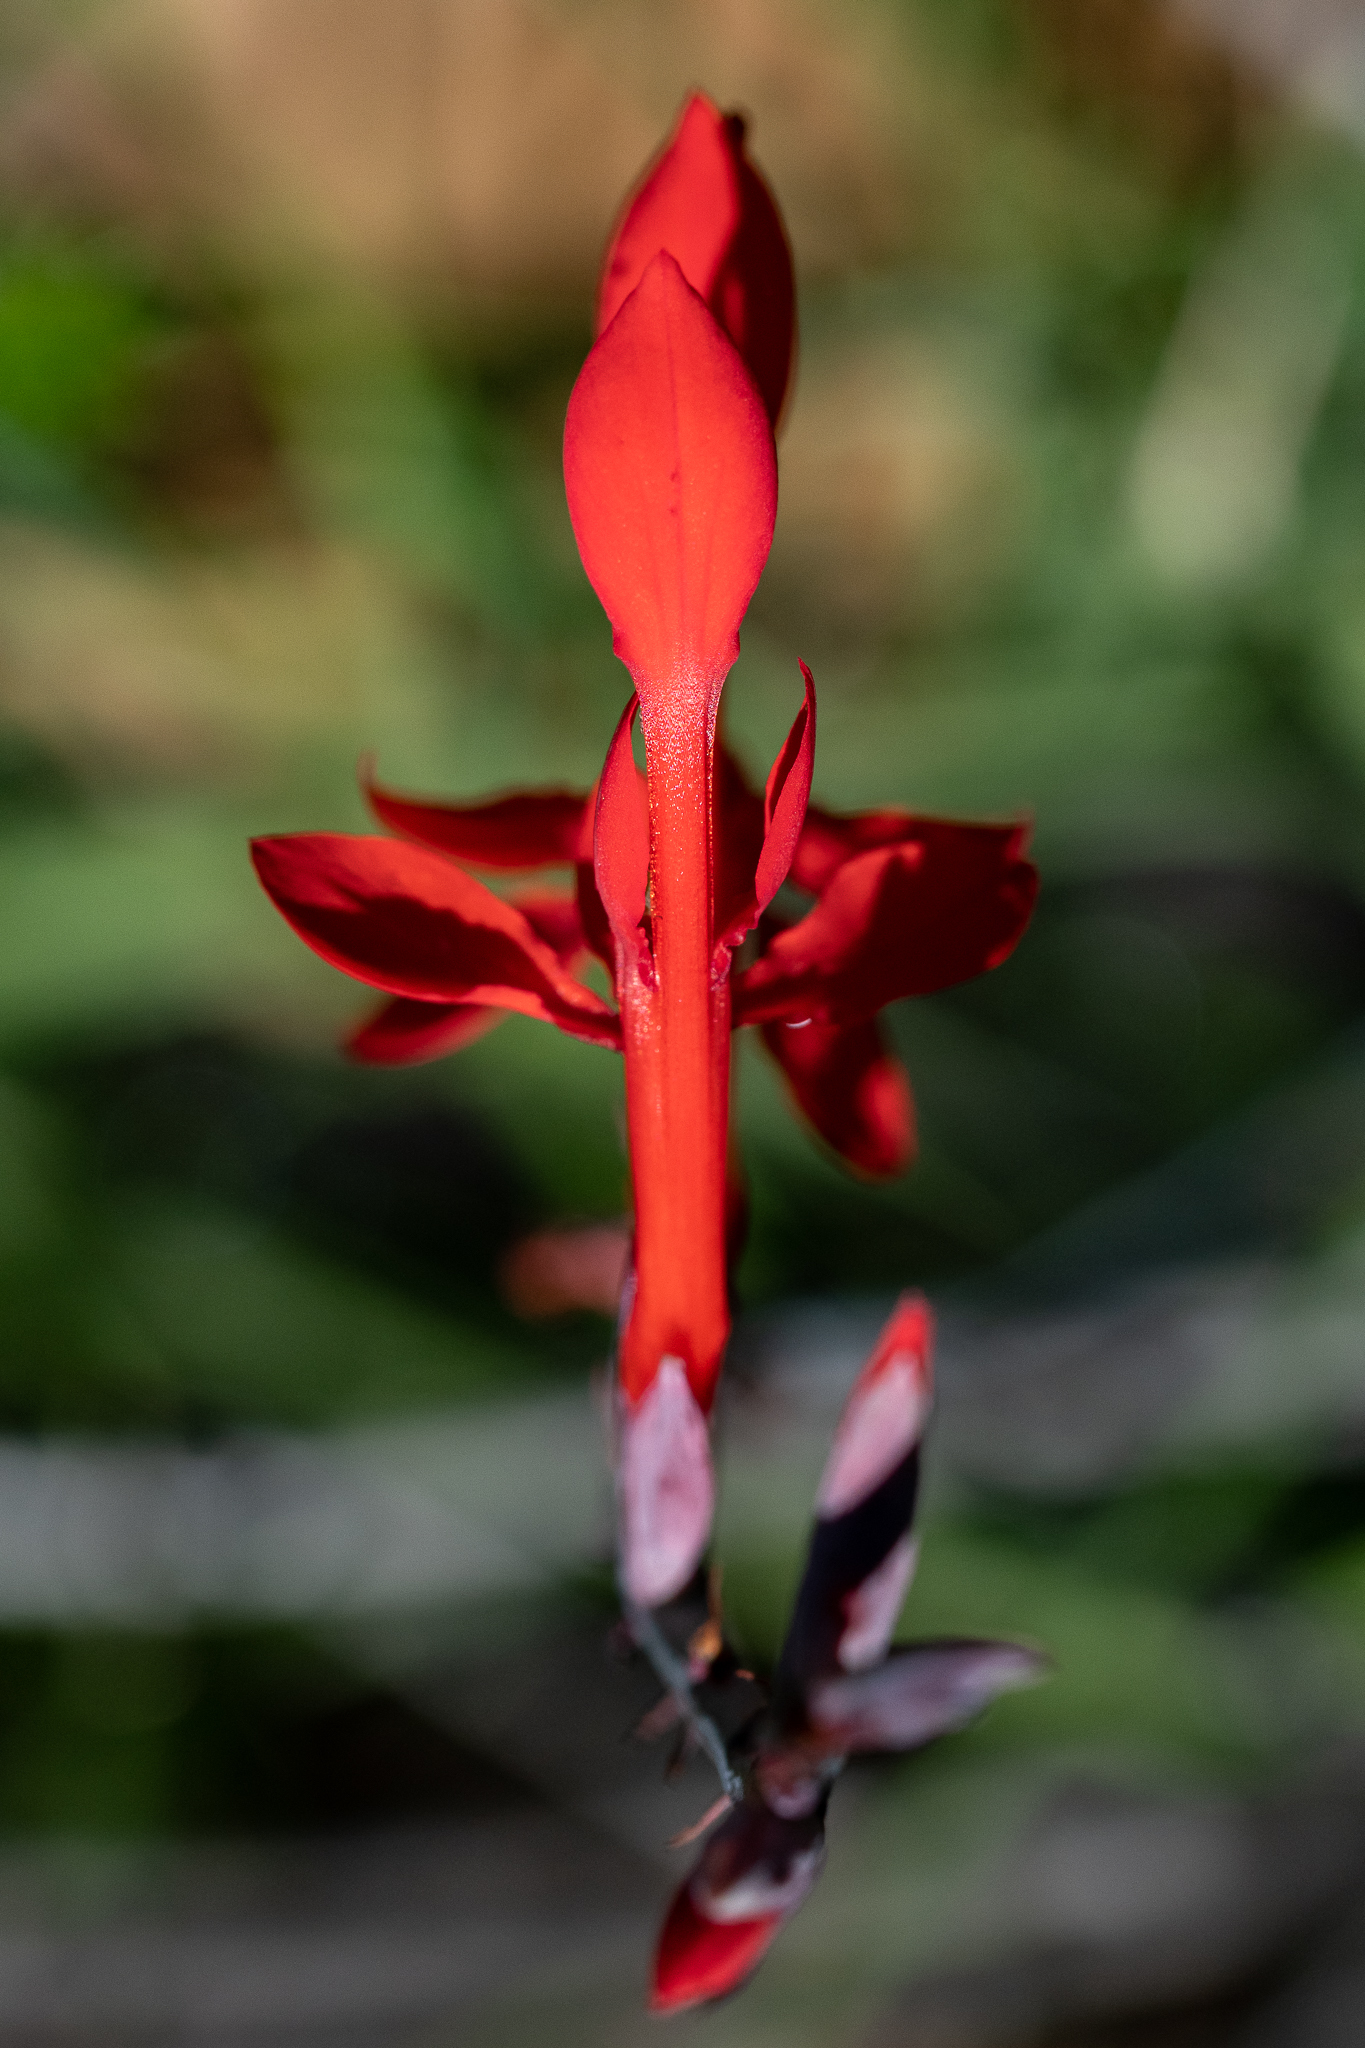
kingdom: Plantae
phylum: Tracheophyta
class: Liliopsida
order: Asparagales
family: Iridaceae
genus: Tritoniopsis
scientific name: Tritoniopsis caffra
